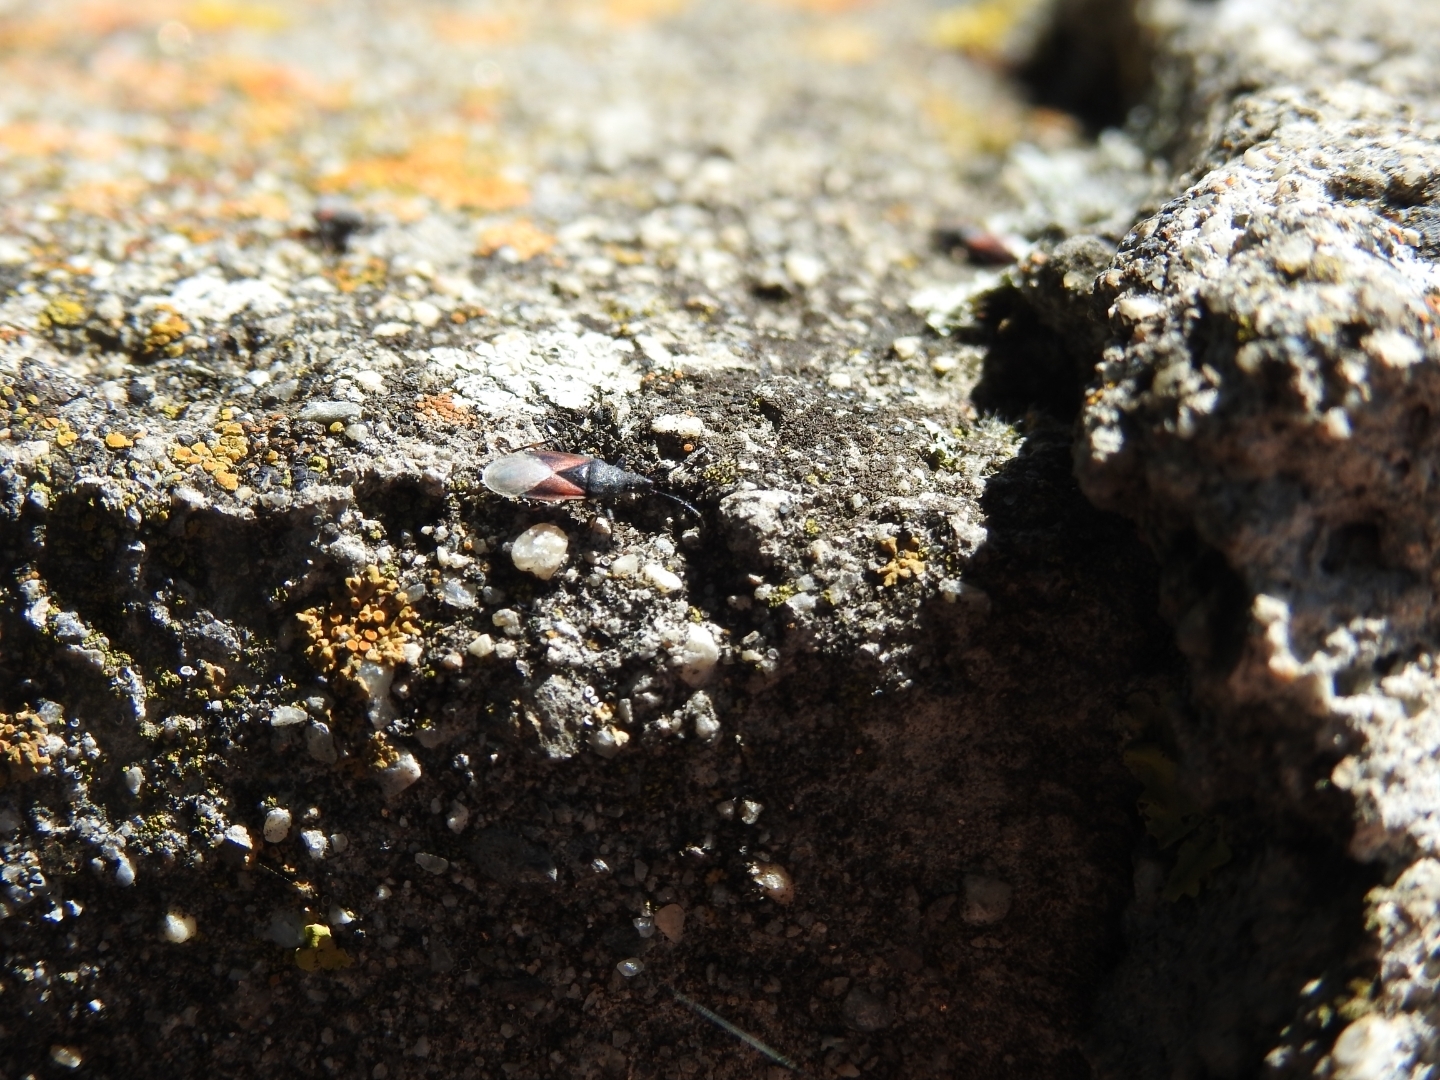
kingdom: Animalia
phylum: Arthropoda
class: Insecta
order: Hemiptera
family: Oxycarenidae
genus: Oxycarenus
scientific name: Oxycarenus lavaterae
